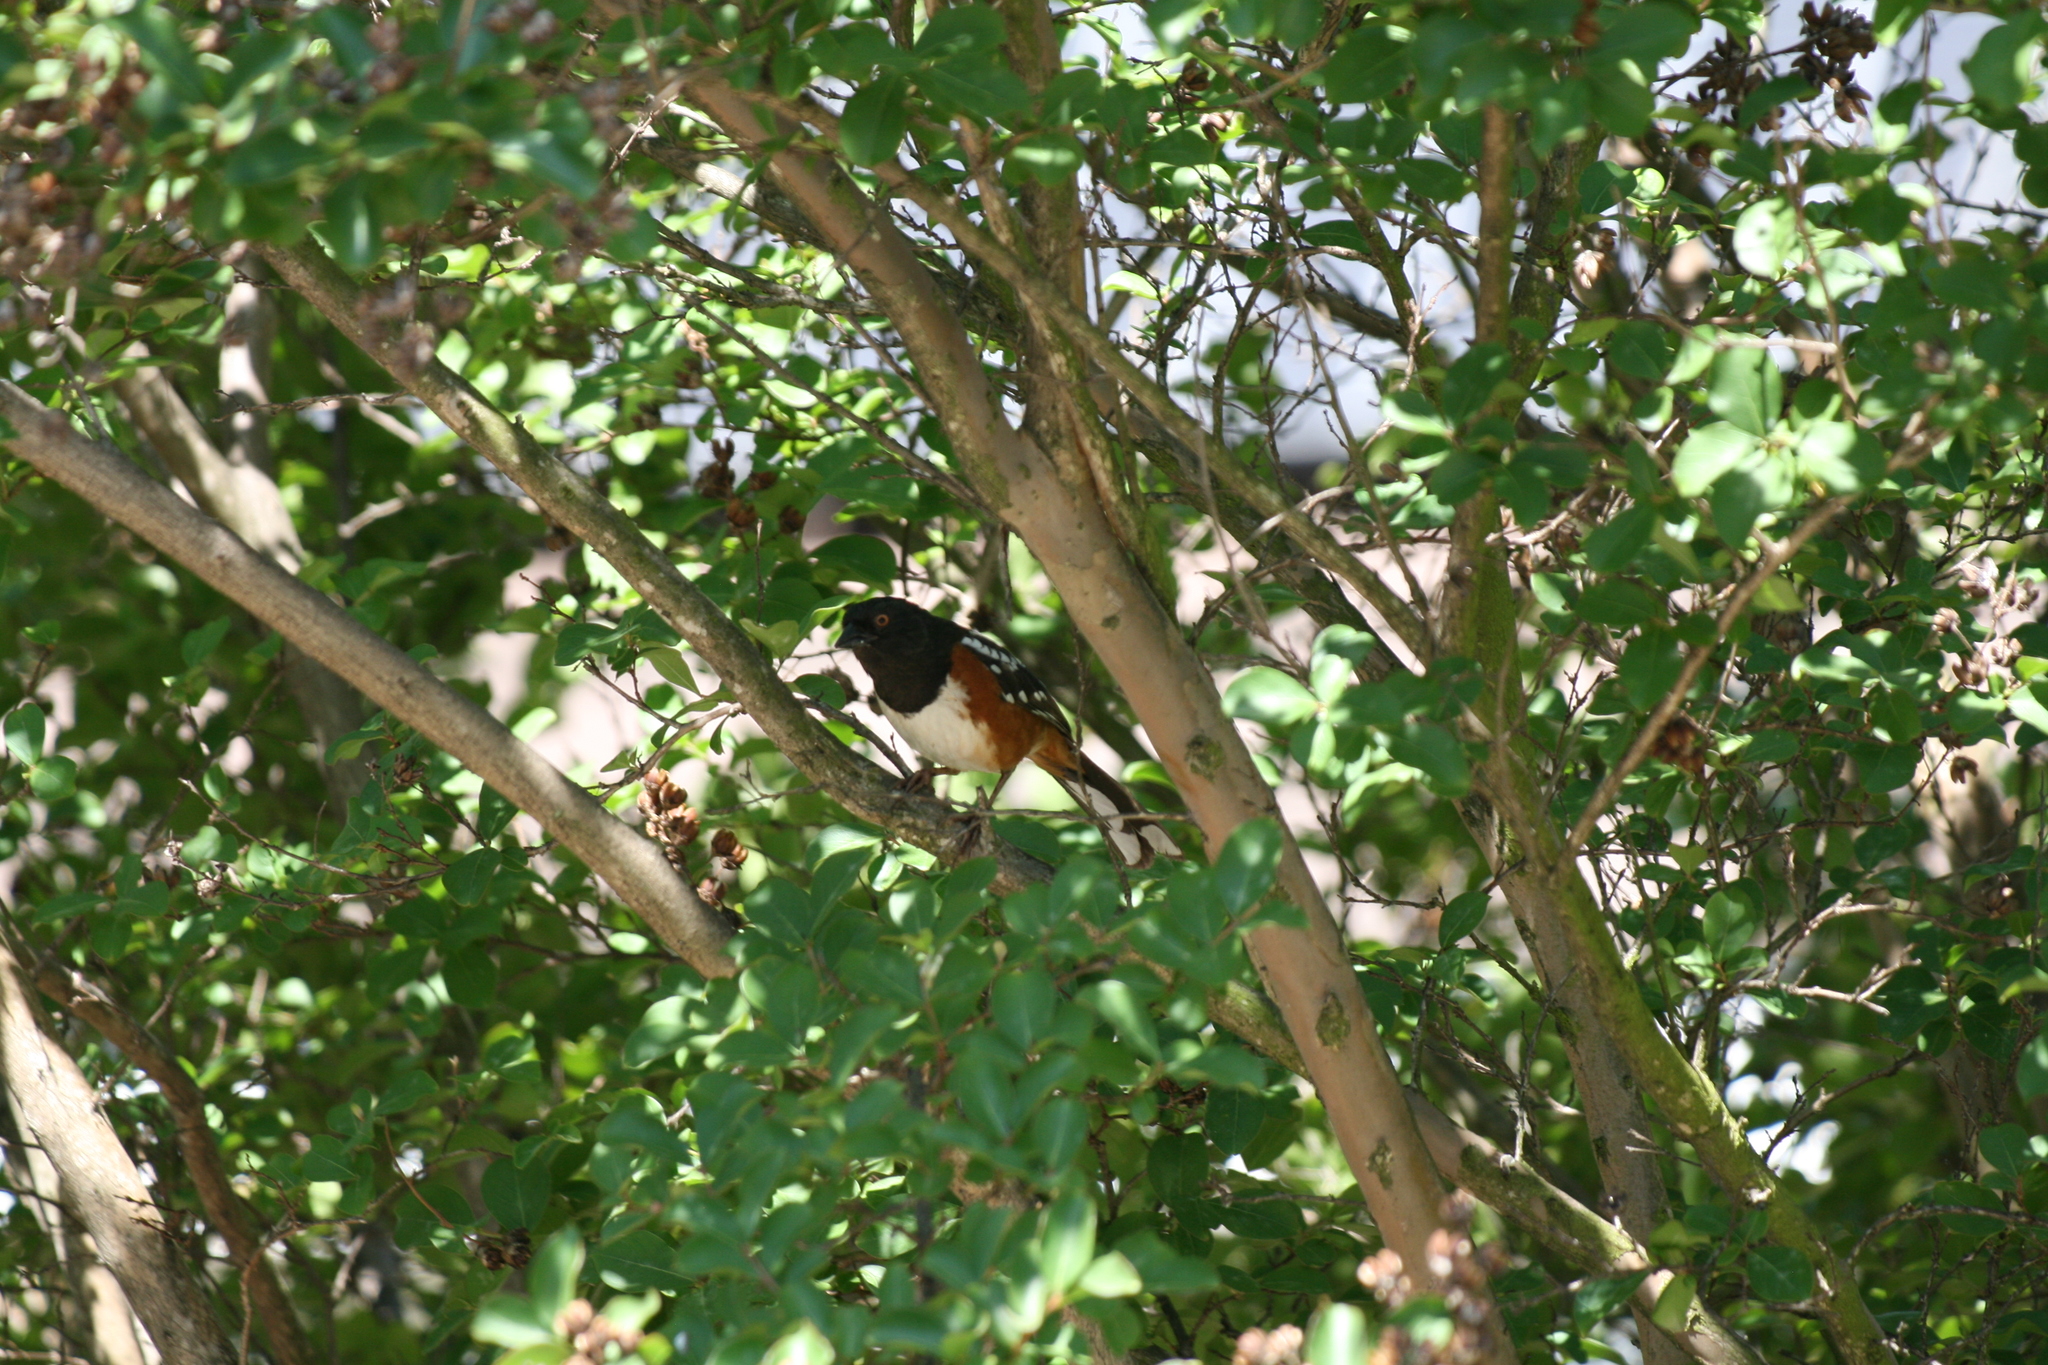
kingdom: Animalia
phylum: Chordata
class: Aves
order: Passeriformes
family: Passerellidae
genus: Pipilo
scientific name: Pipilo maculatus
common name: Spotted towhee
